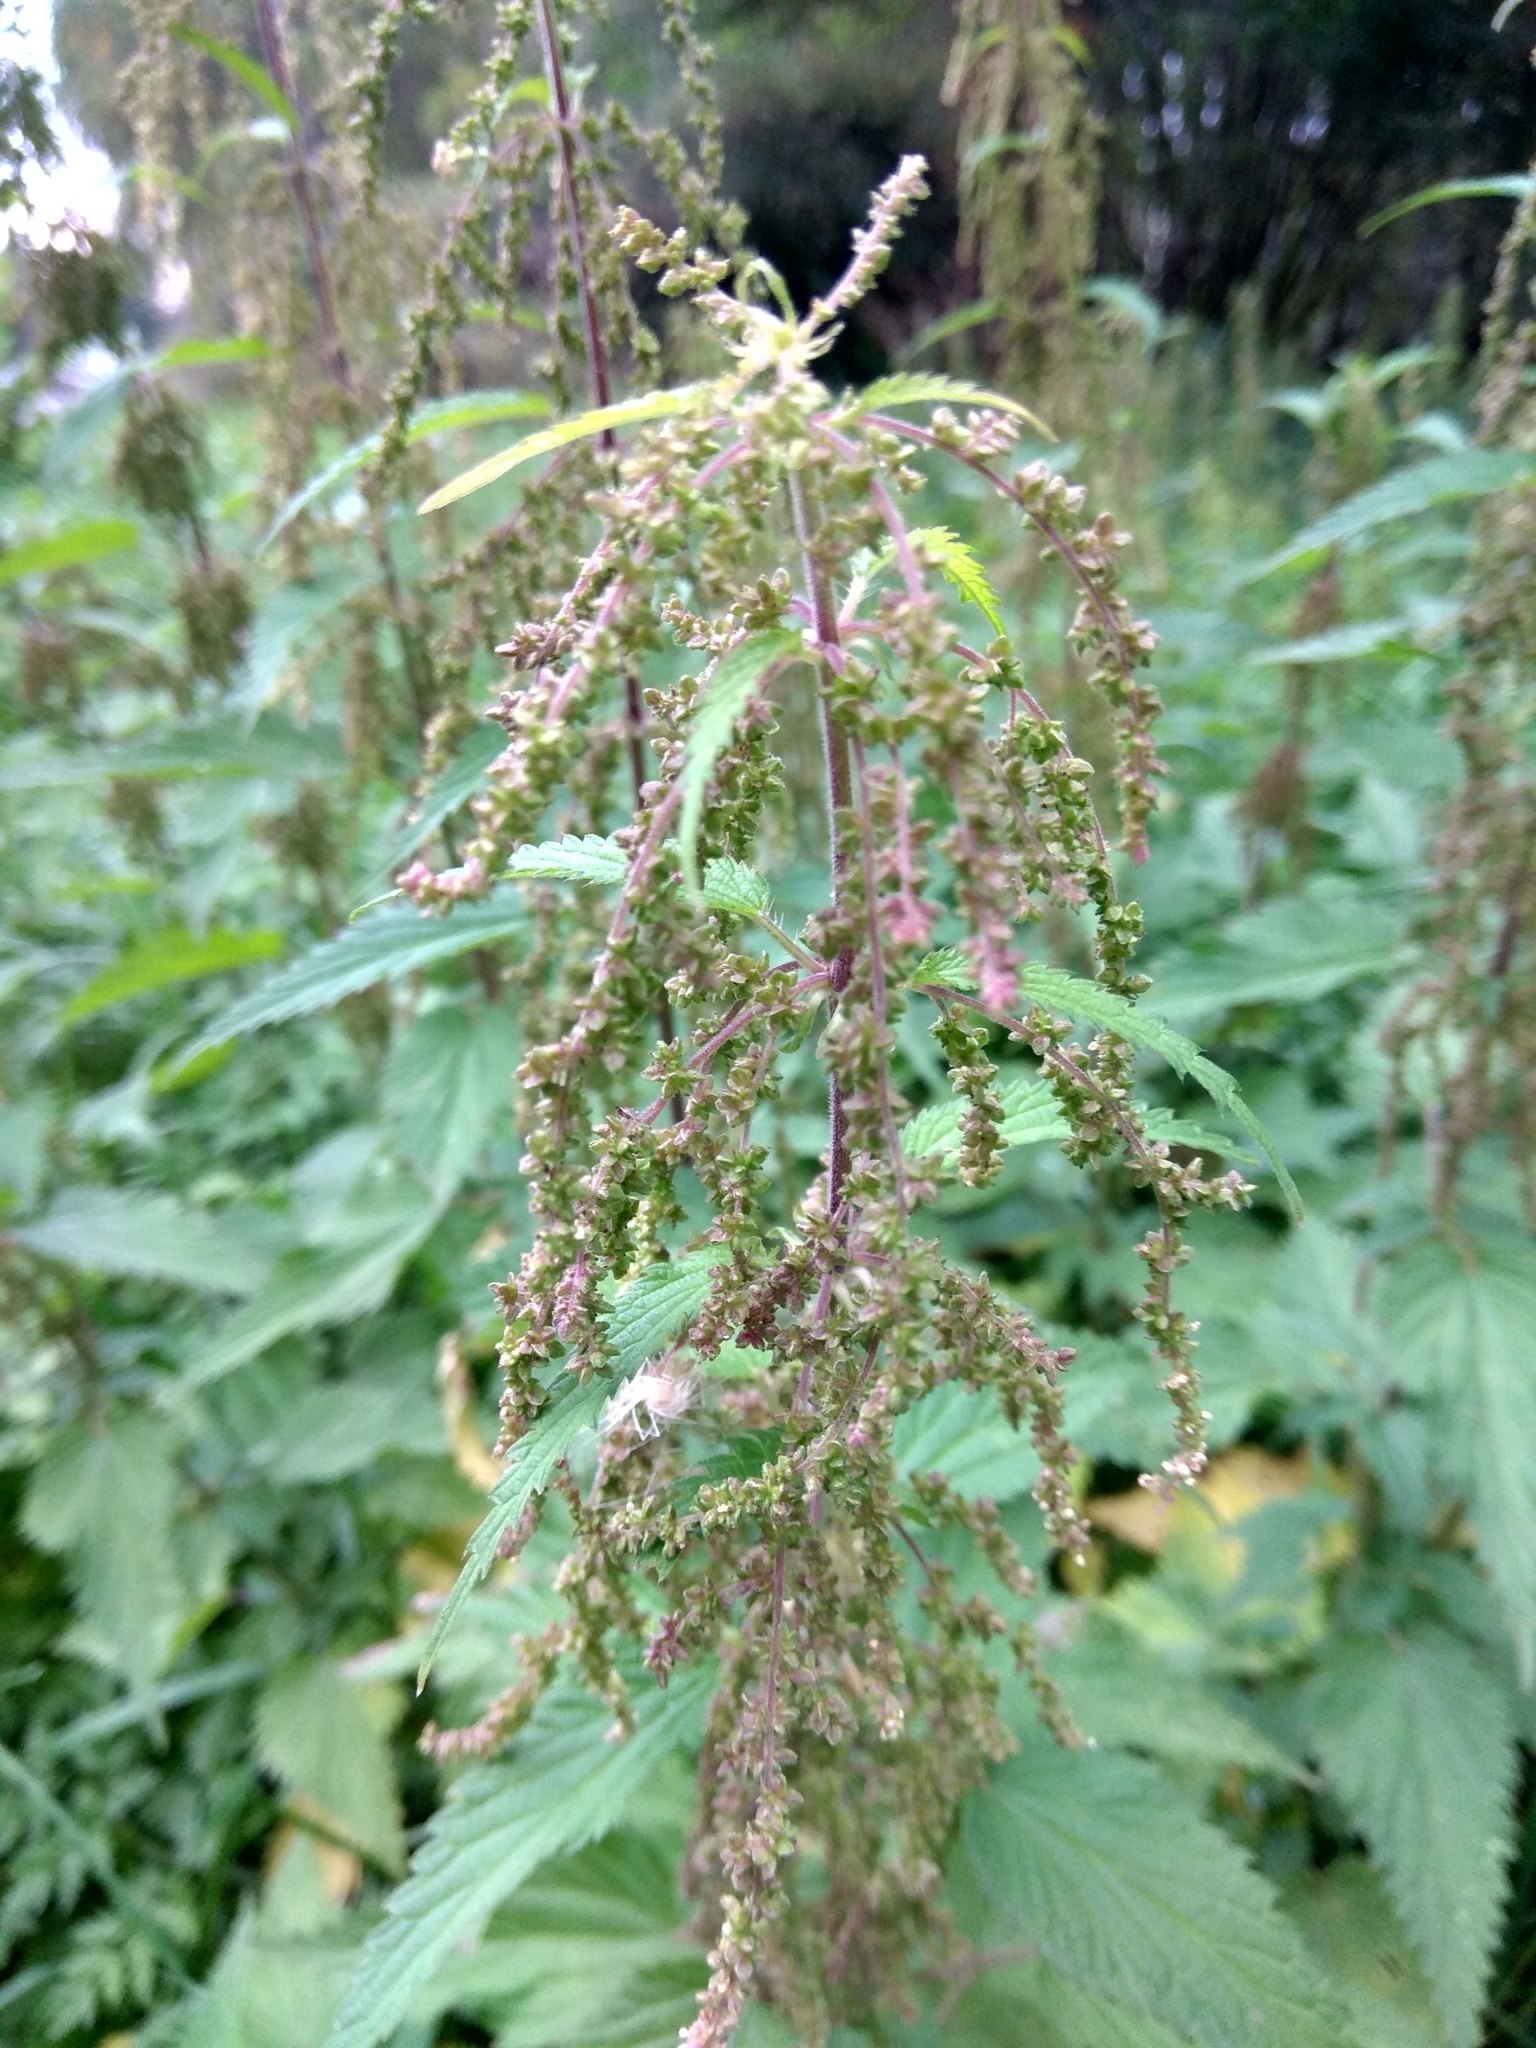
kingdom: Plantae
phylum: Tracheophyta
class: Magnoliopsida
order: Rosales
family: Urticaceae
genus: Urtica
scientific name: Urtica dioica
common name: Common nettle
